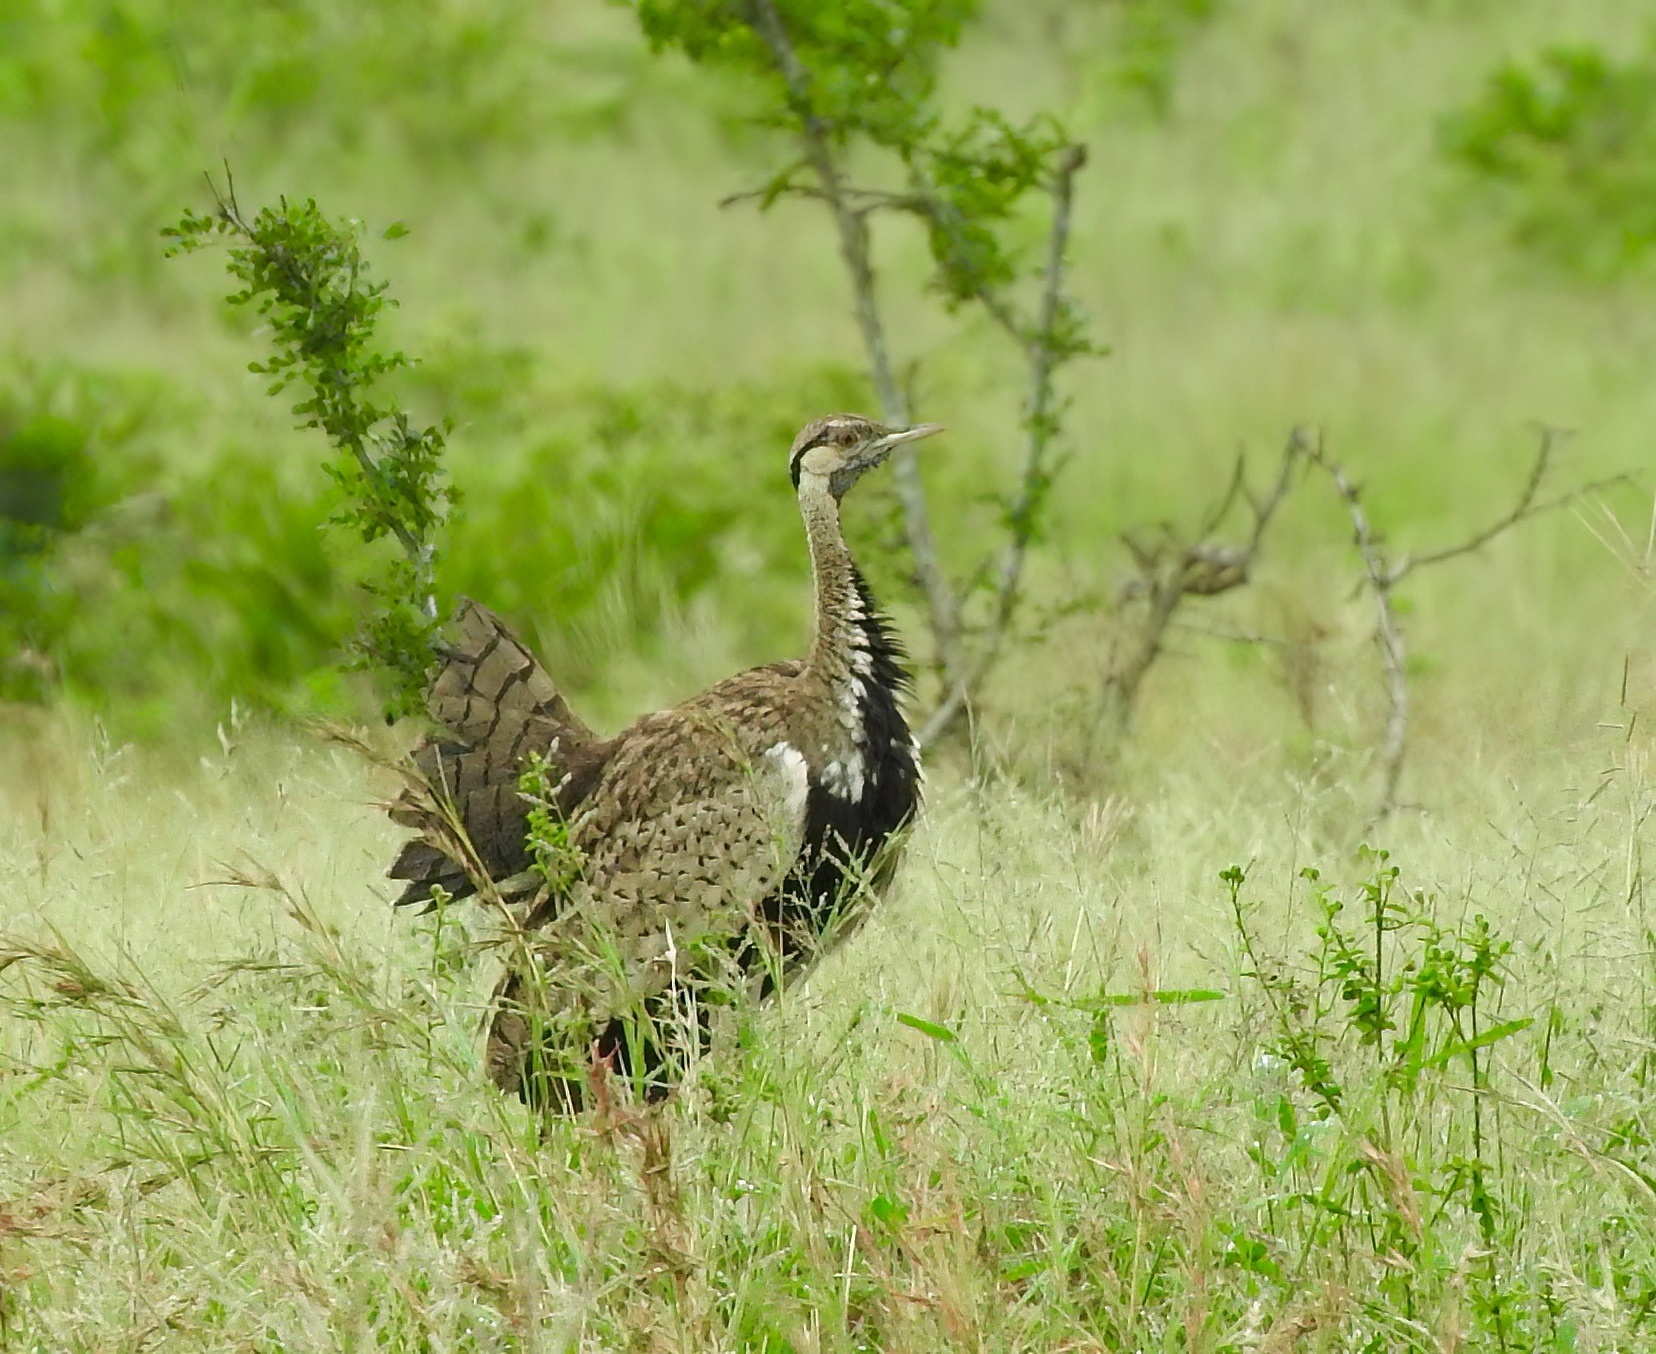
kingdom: Animalia
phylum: Chordata
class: Aves
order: Otidiformes
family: Otididae
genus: Lissotis
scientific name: Lissotis melanogaster
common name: Black-bellied bustard
